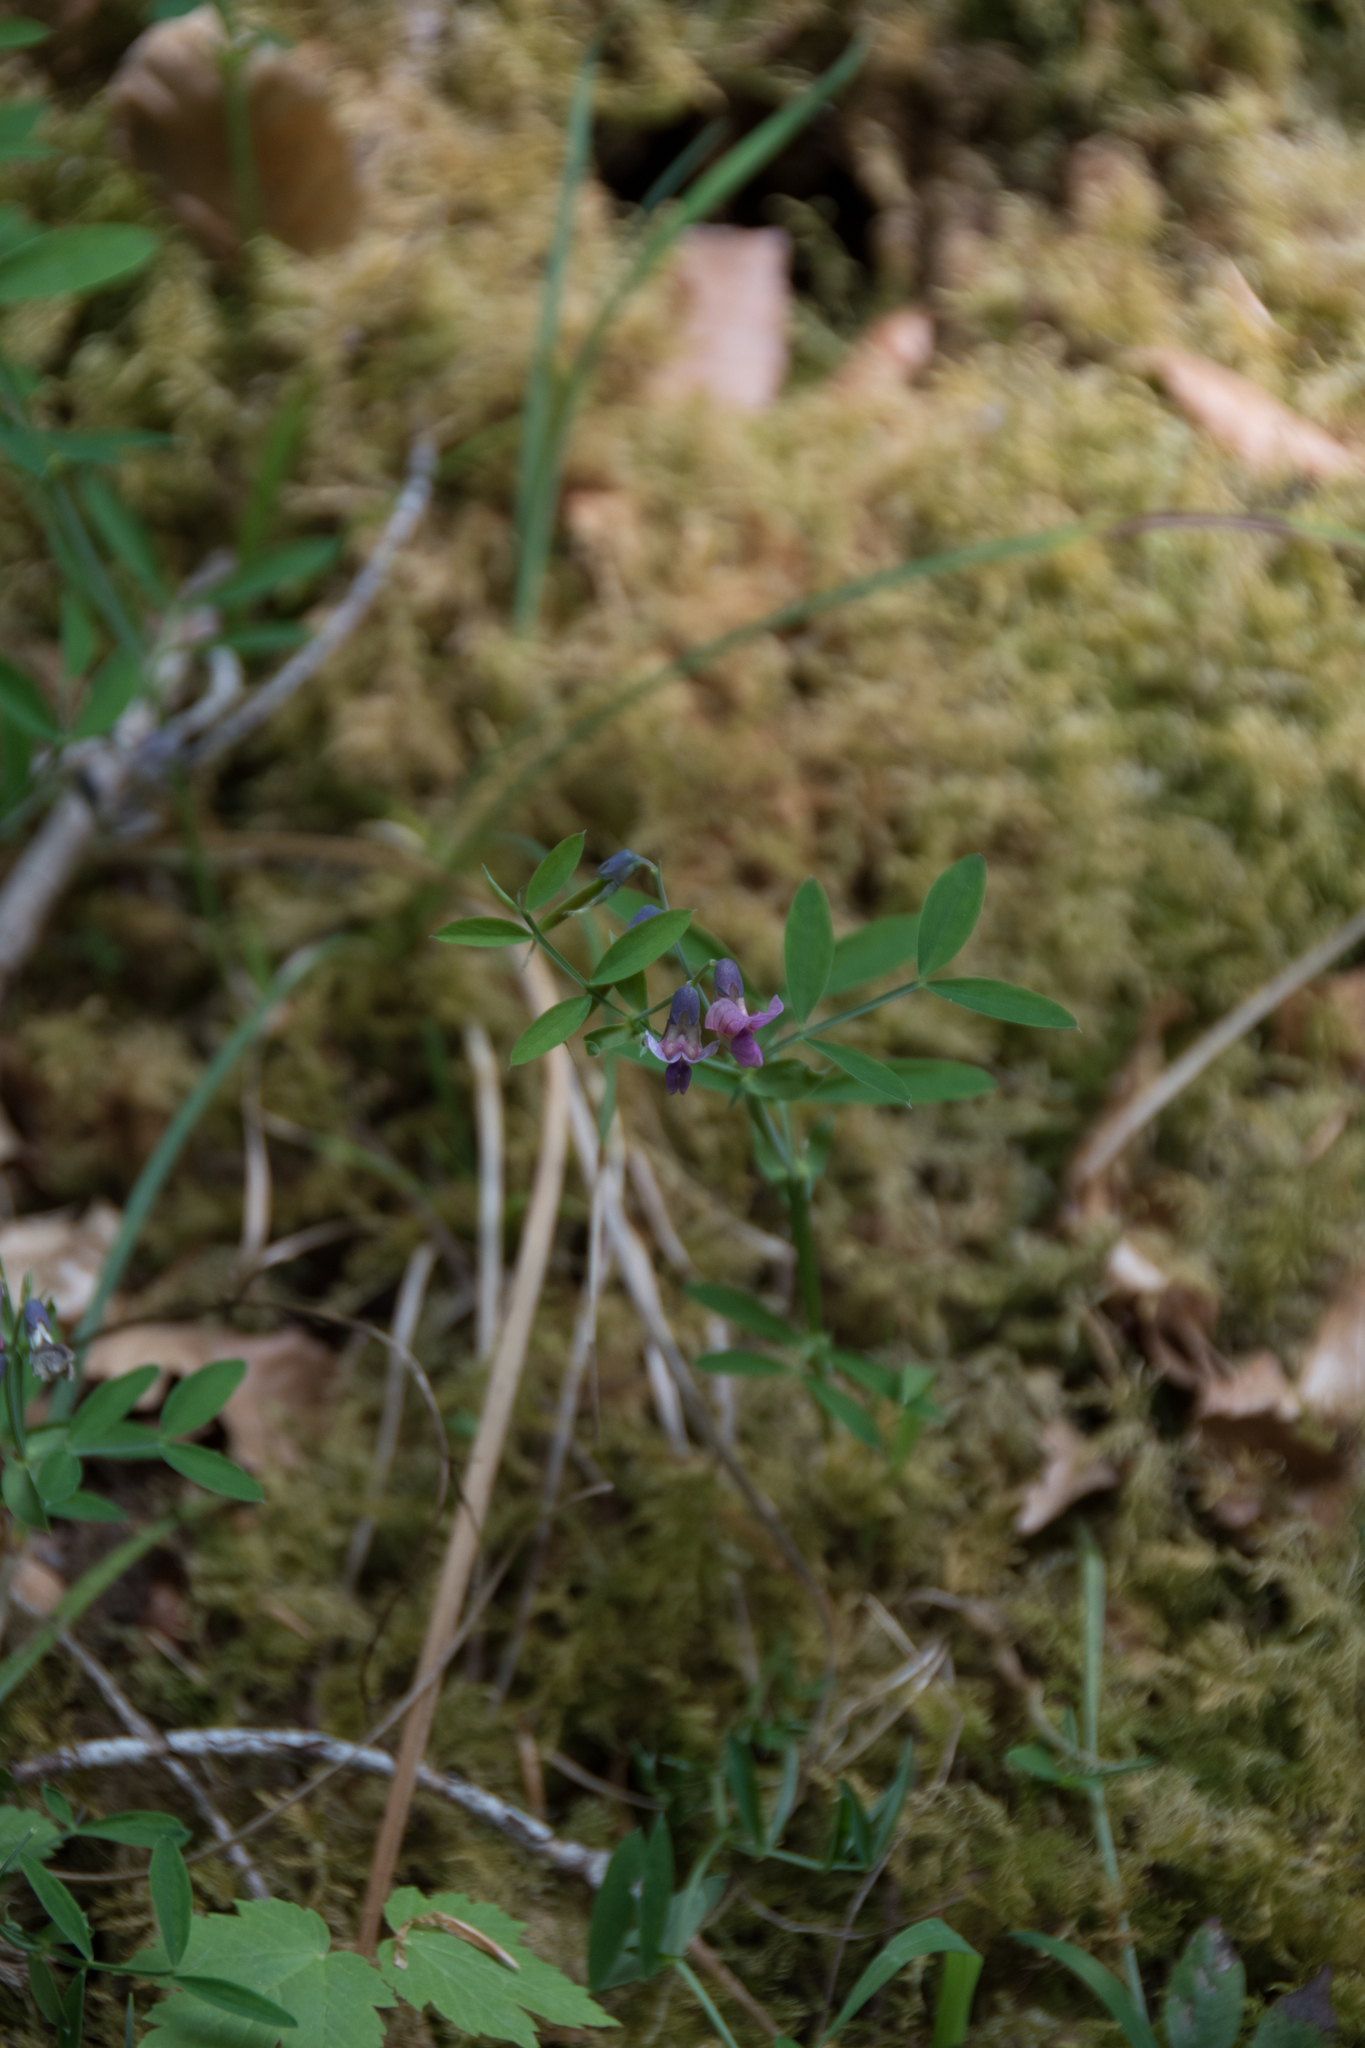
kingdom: Plantae
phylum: Tracheophyta
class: Magnoliopsida
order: Fabales
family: Fabaceae
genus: Lathyrus
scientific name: Lathyrus linifolius
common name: Bitter-vetch
